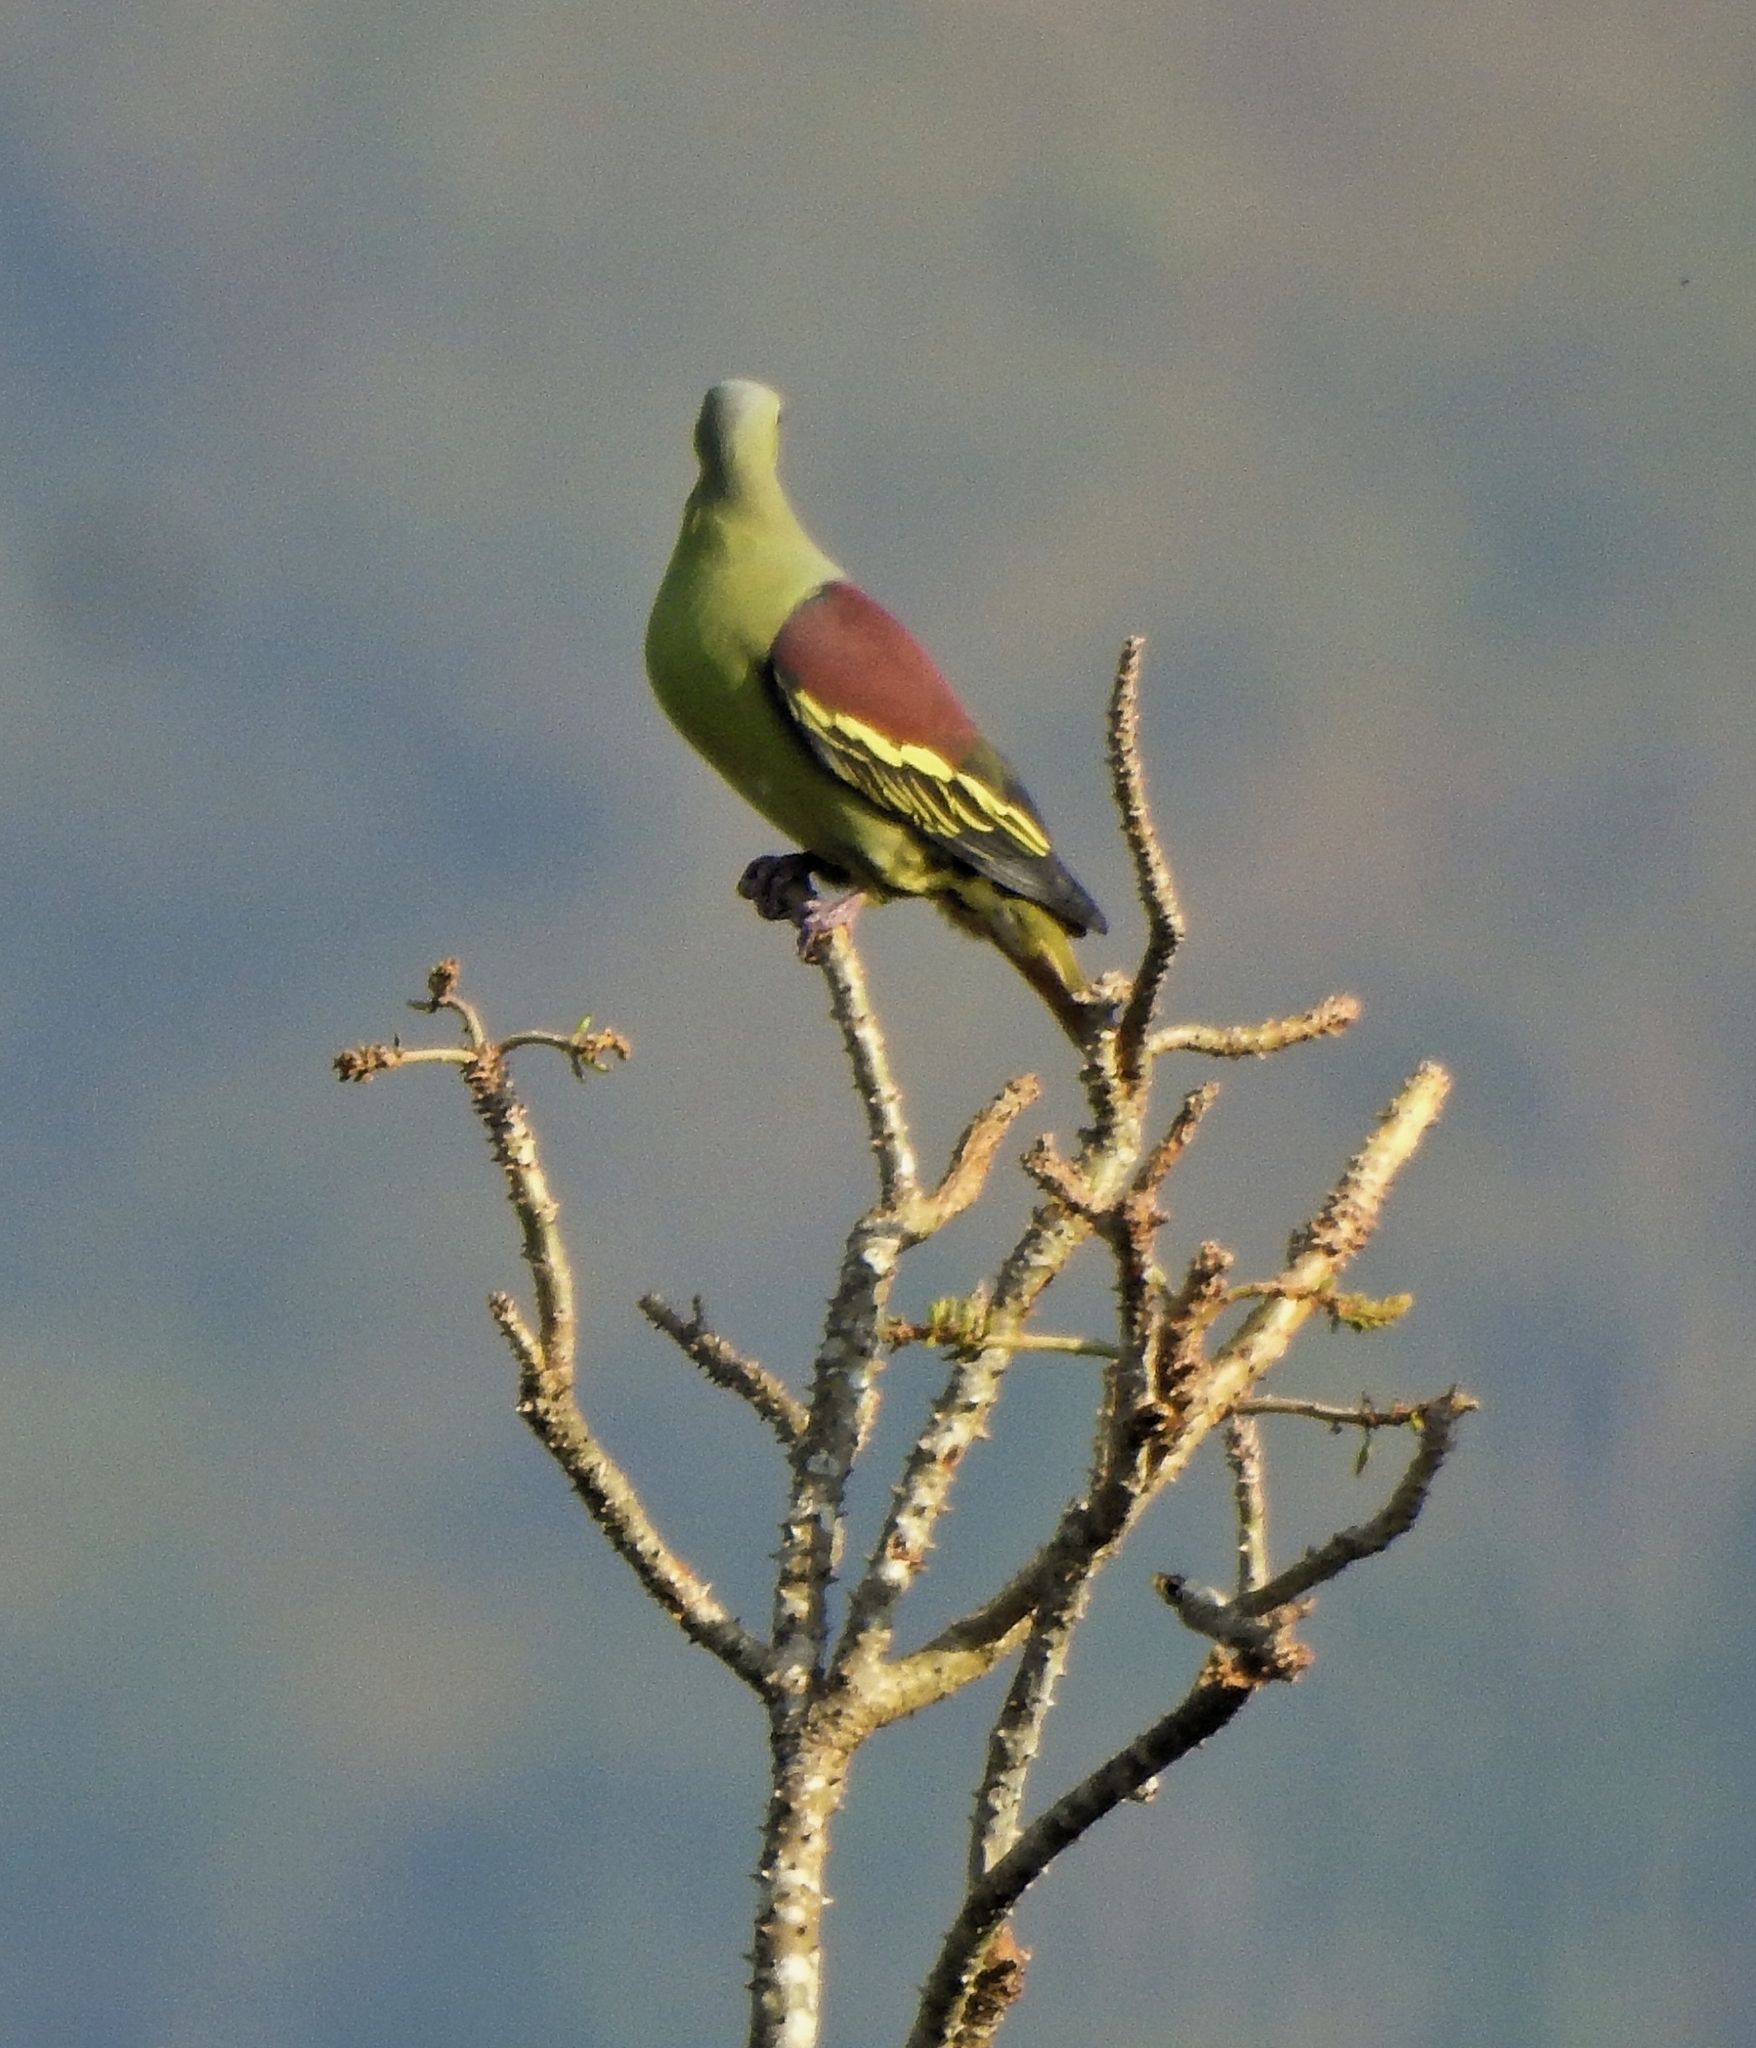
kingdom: Animalia
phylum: Chordata
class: Aves
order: Columbiformes
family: Columbidae
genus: Treron
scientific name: Treron affinis
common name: Grey-fronted green pigeon
